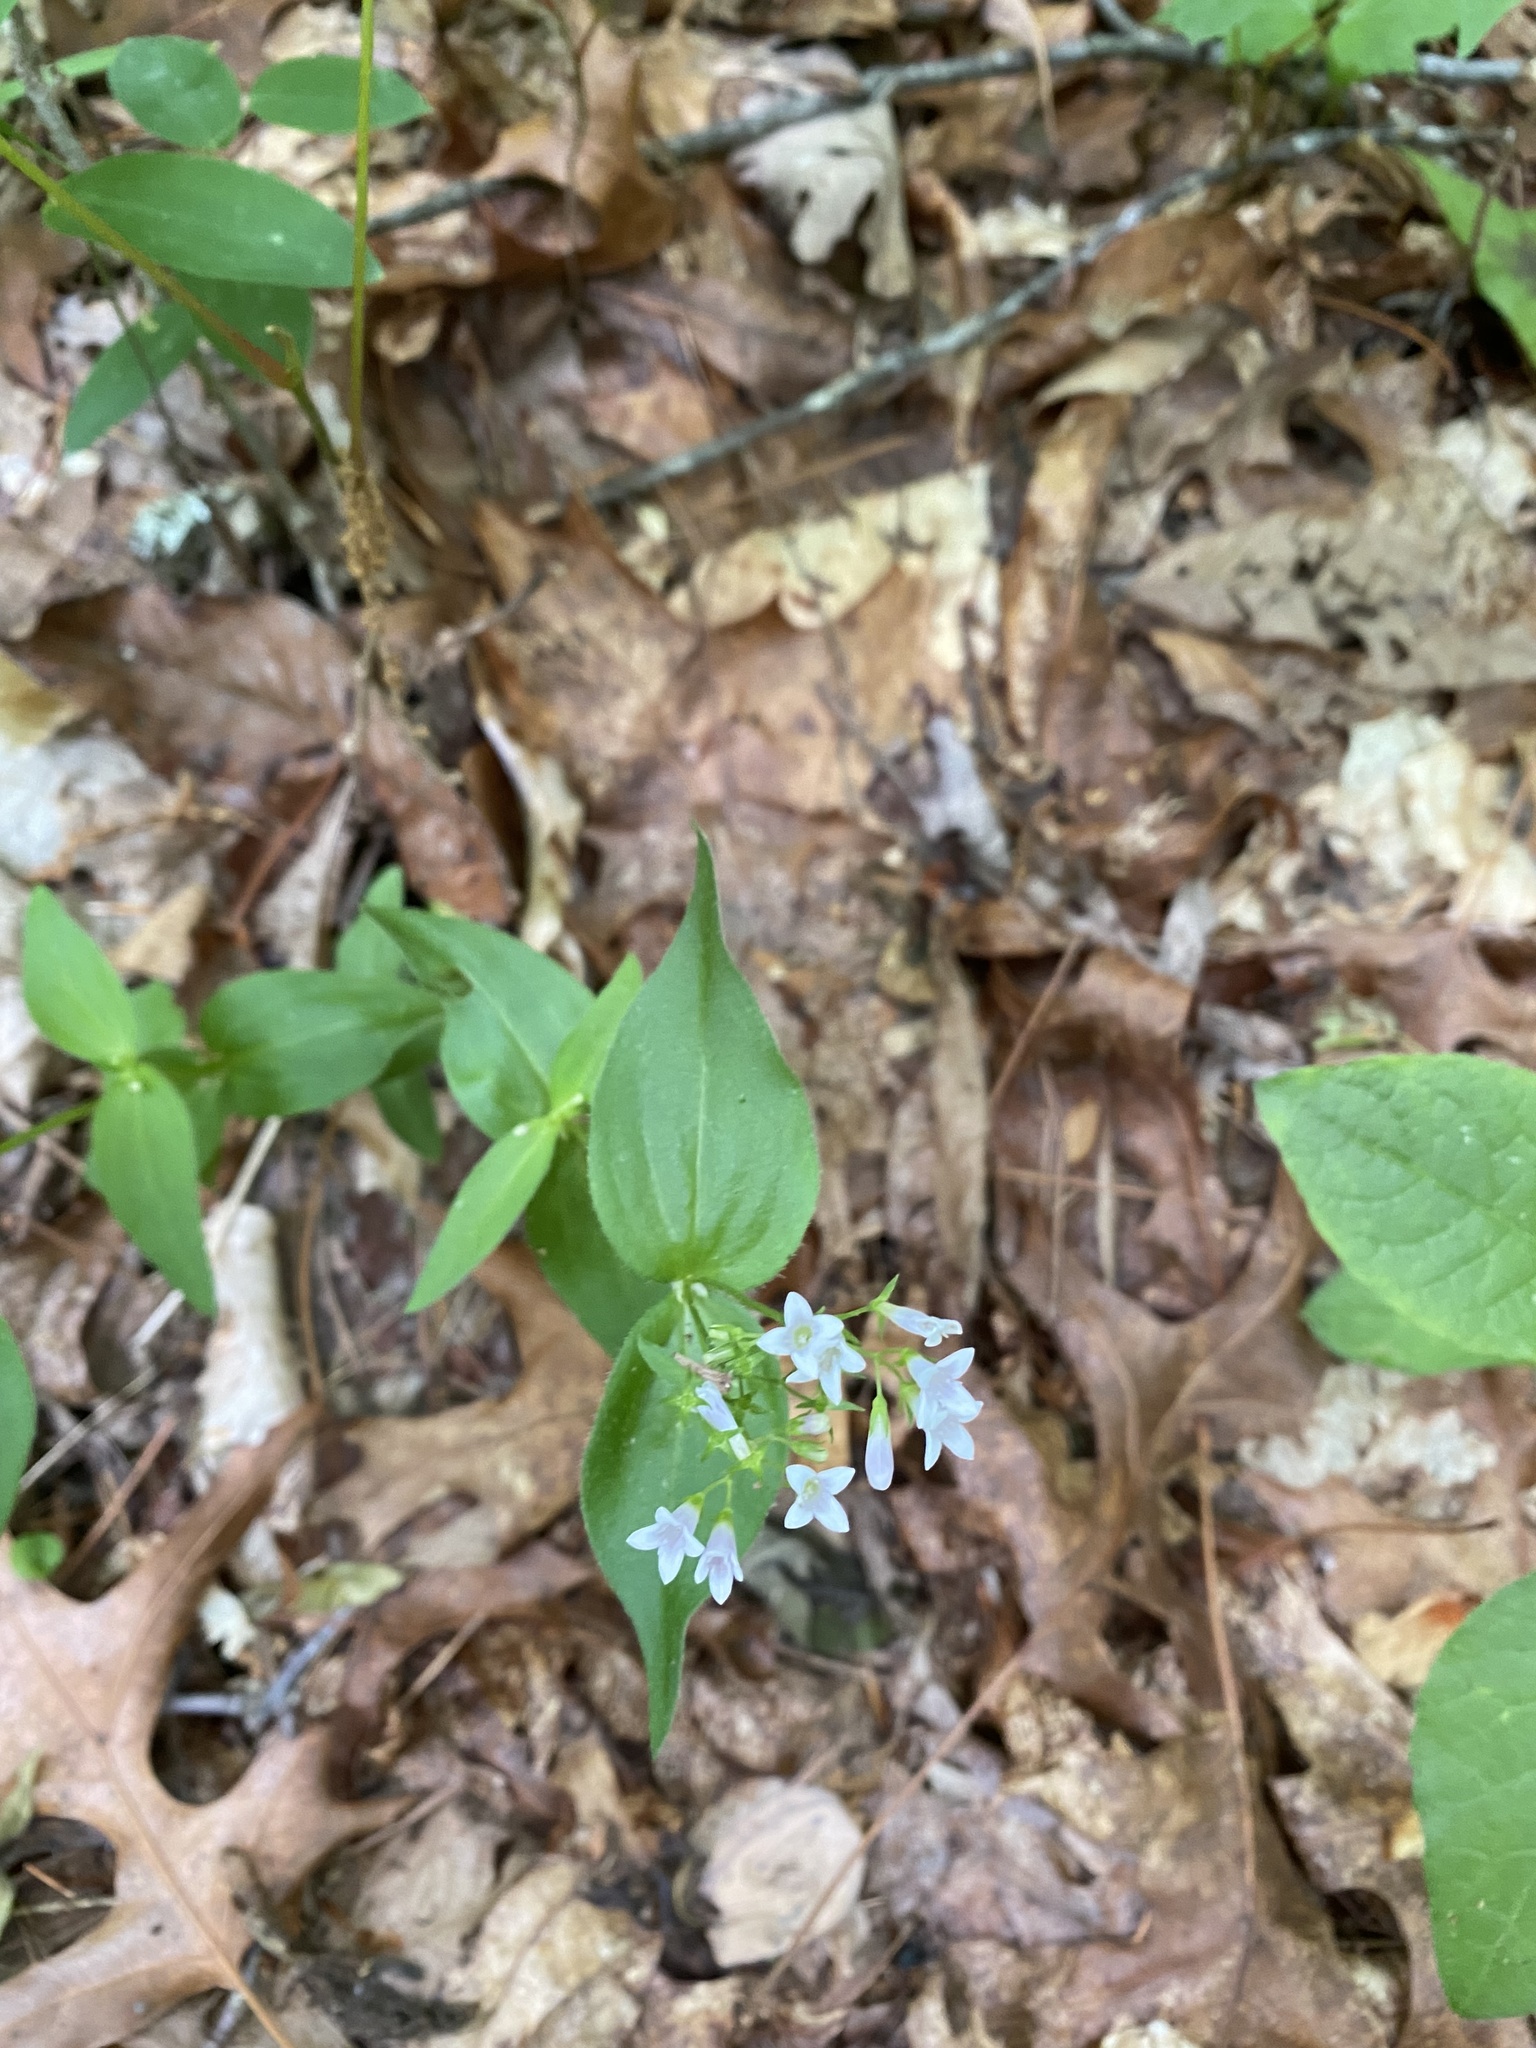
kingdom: Plantae
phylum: Tracheophyta
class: Magnoliopsida
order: Gentianales
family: Rubiaceae
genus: Houstonia
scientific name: Houstonia purpurea
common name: Summer bluet
